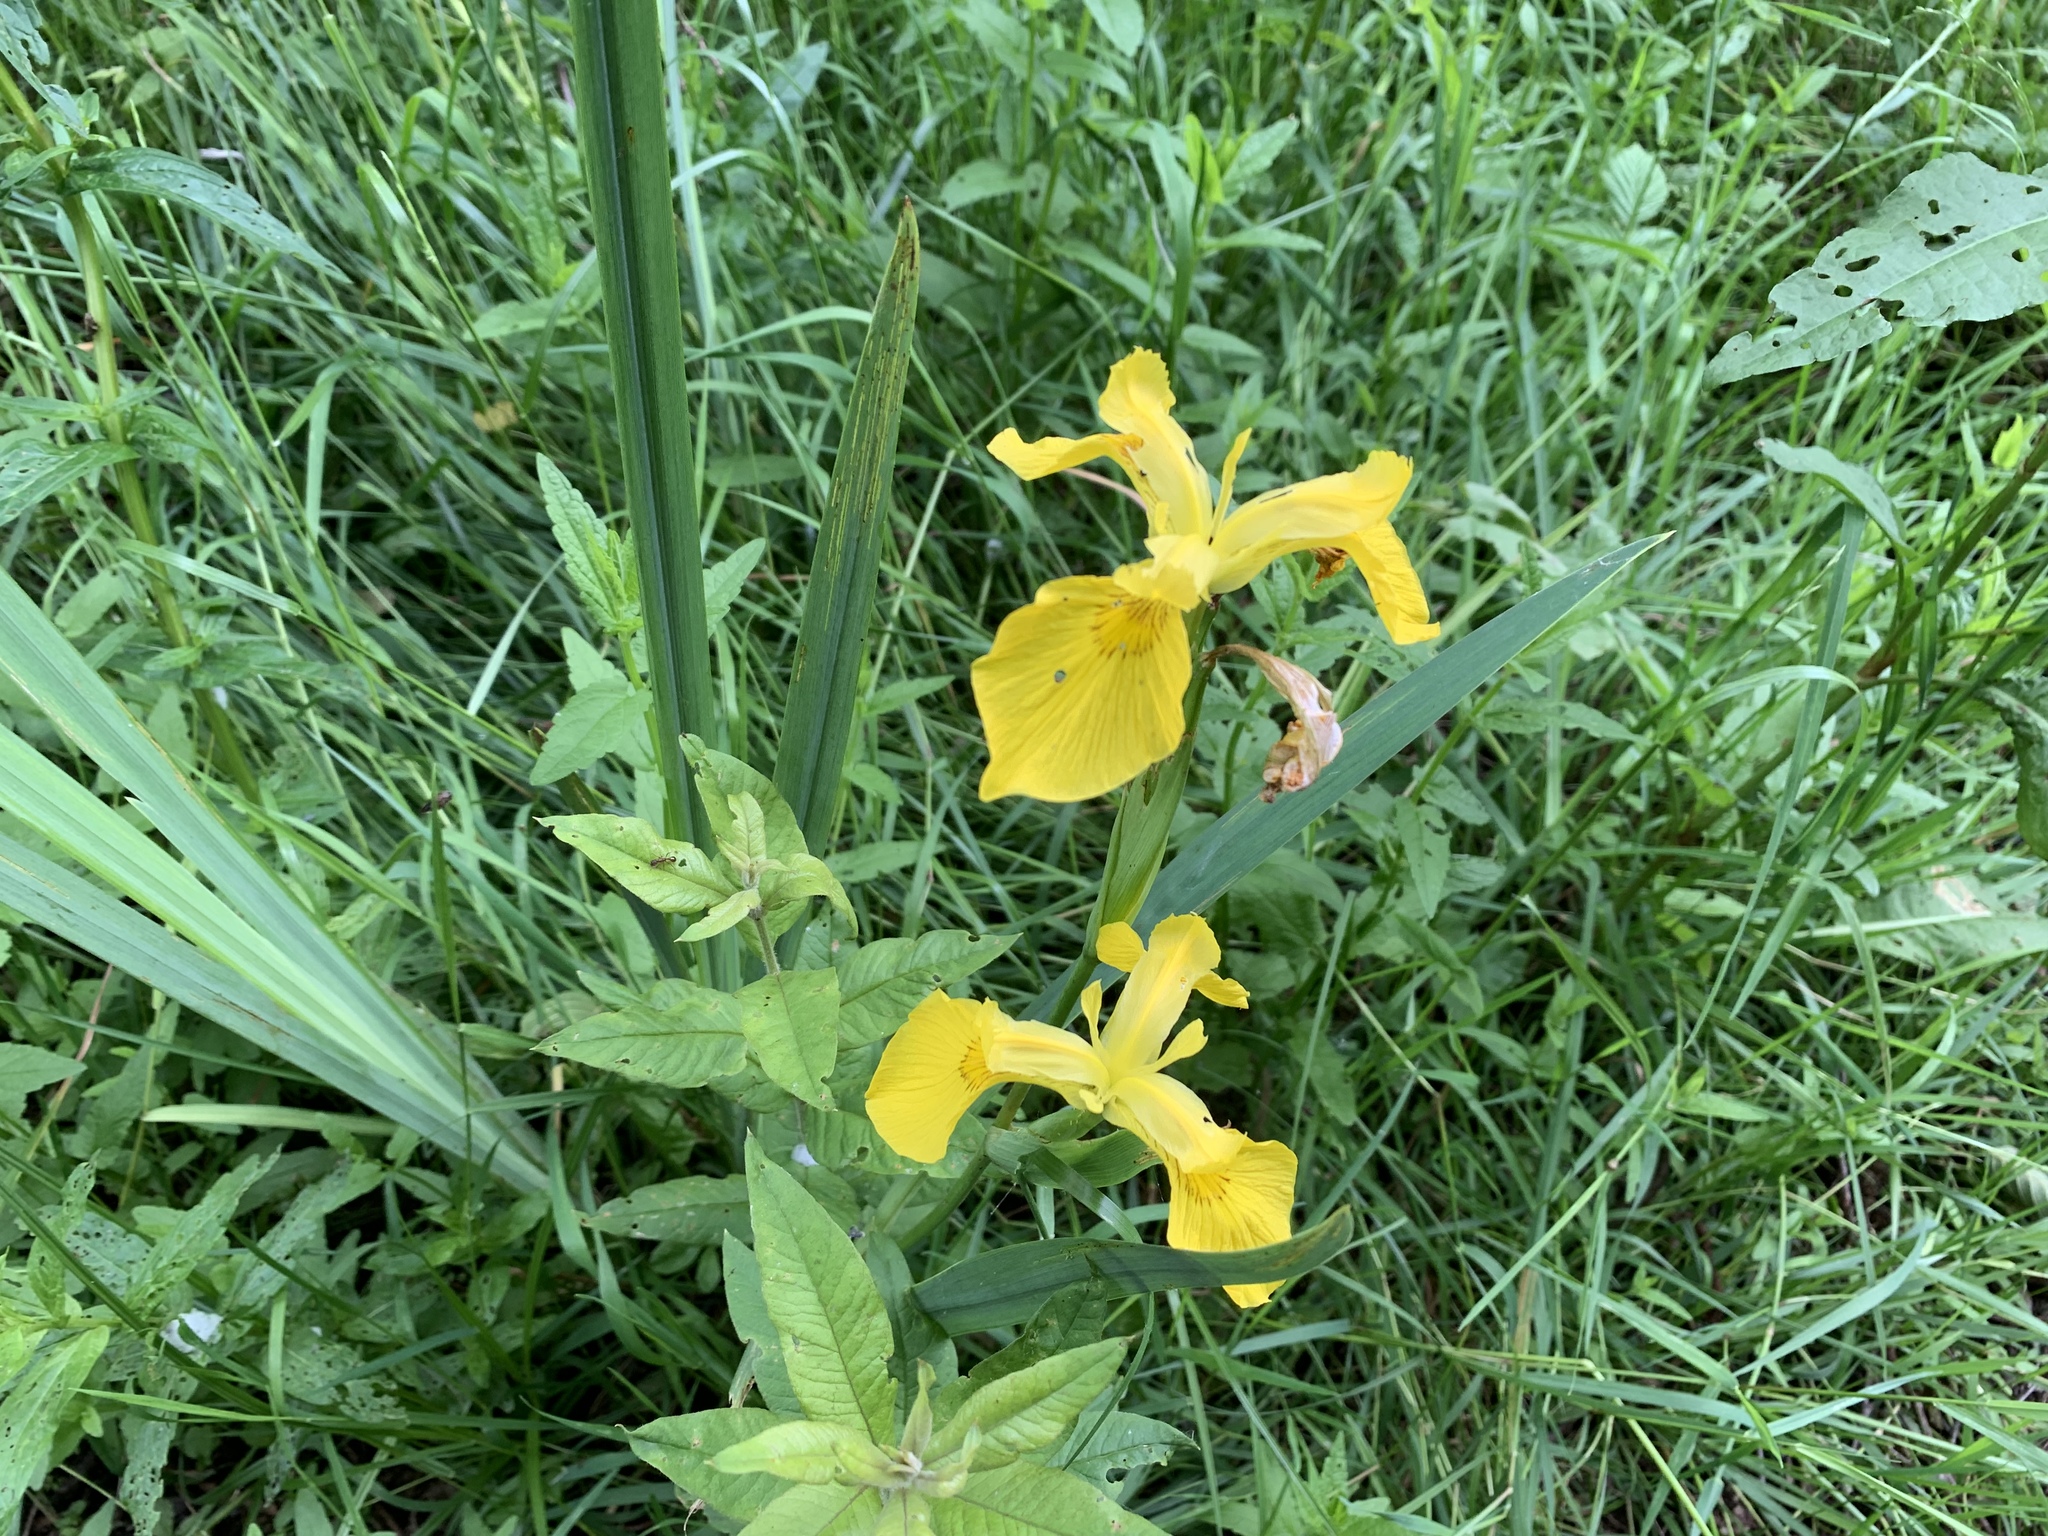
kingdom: Plantae
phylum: Tracheophyta
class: Liliopsida
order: Asparagales
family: Iridaceae
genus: Iris
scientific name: Iris pseudacorus
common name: Yellow flag
